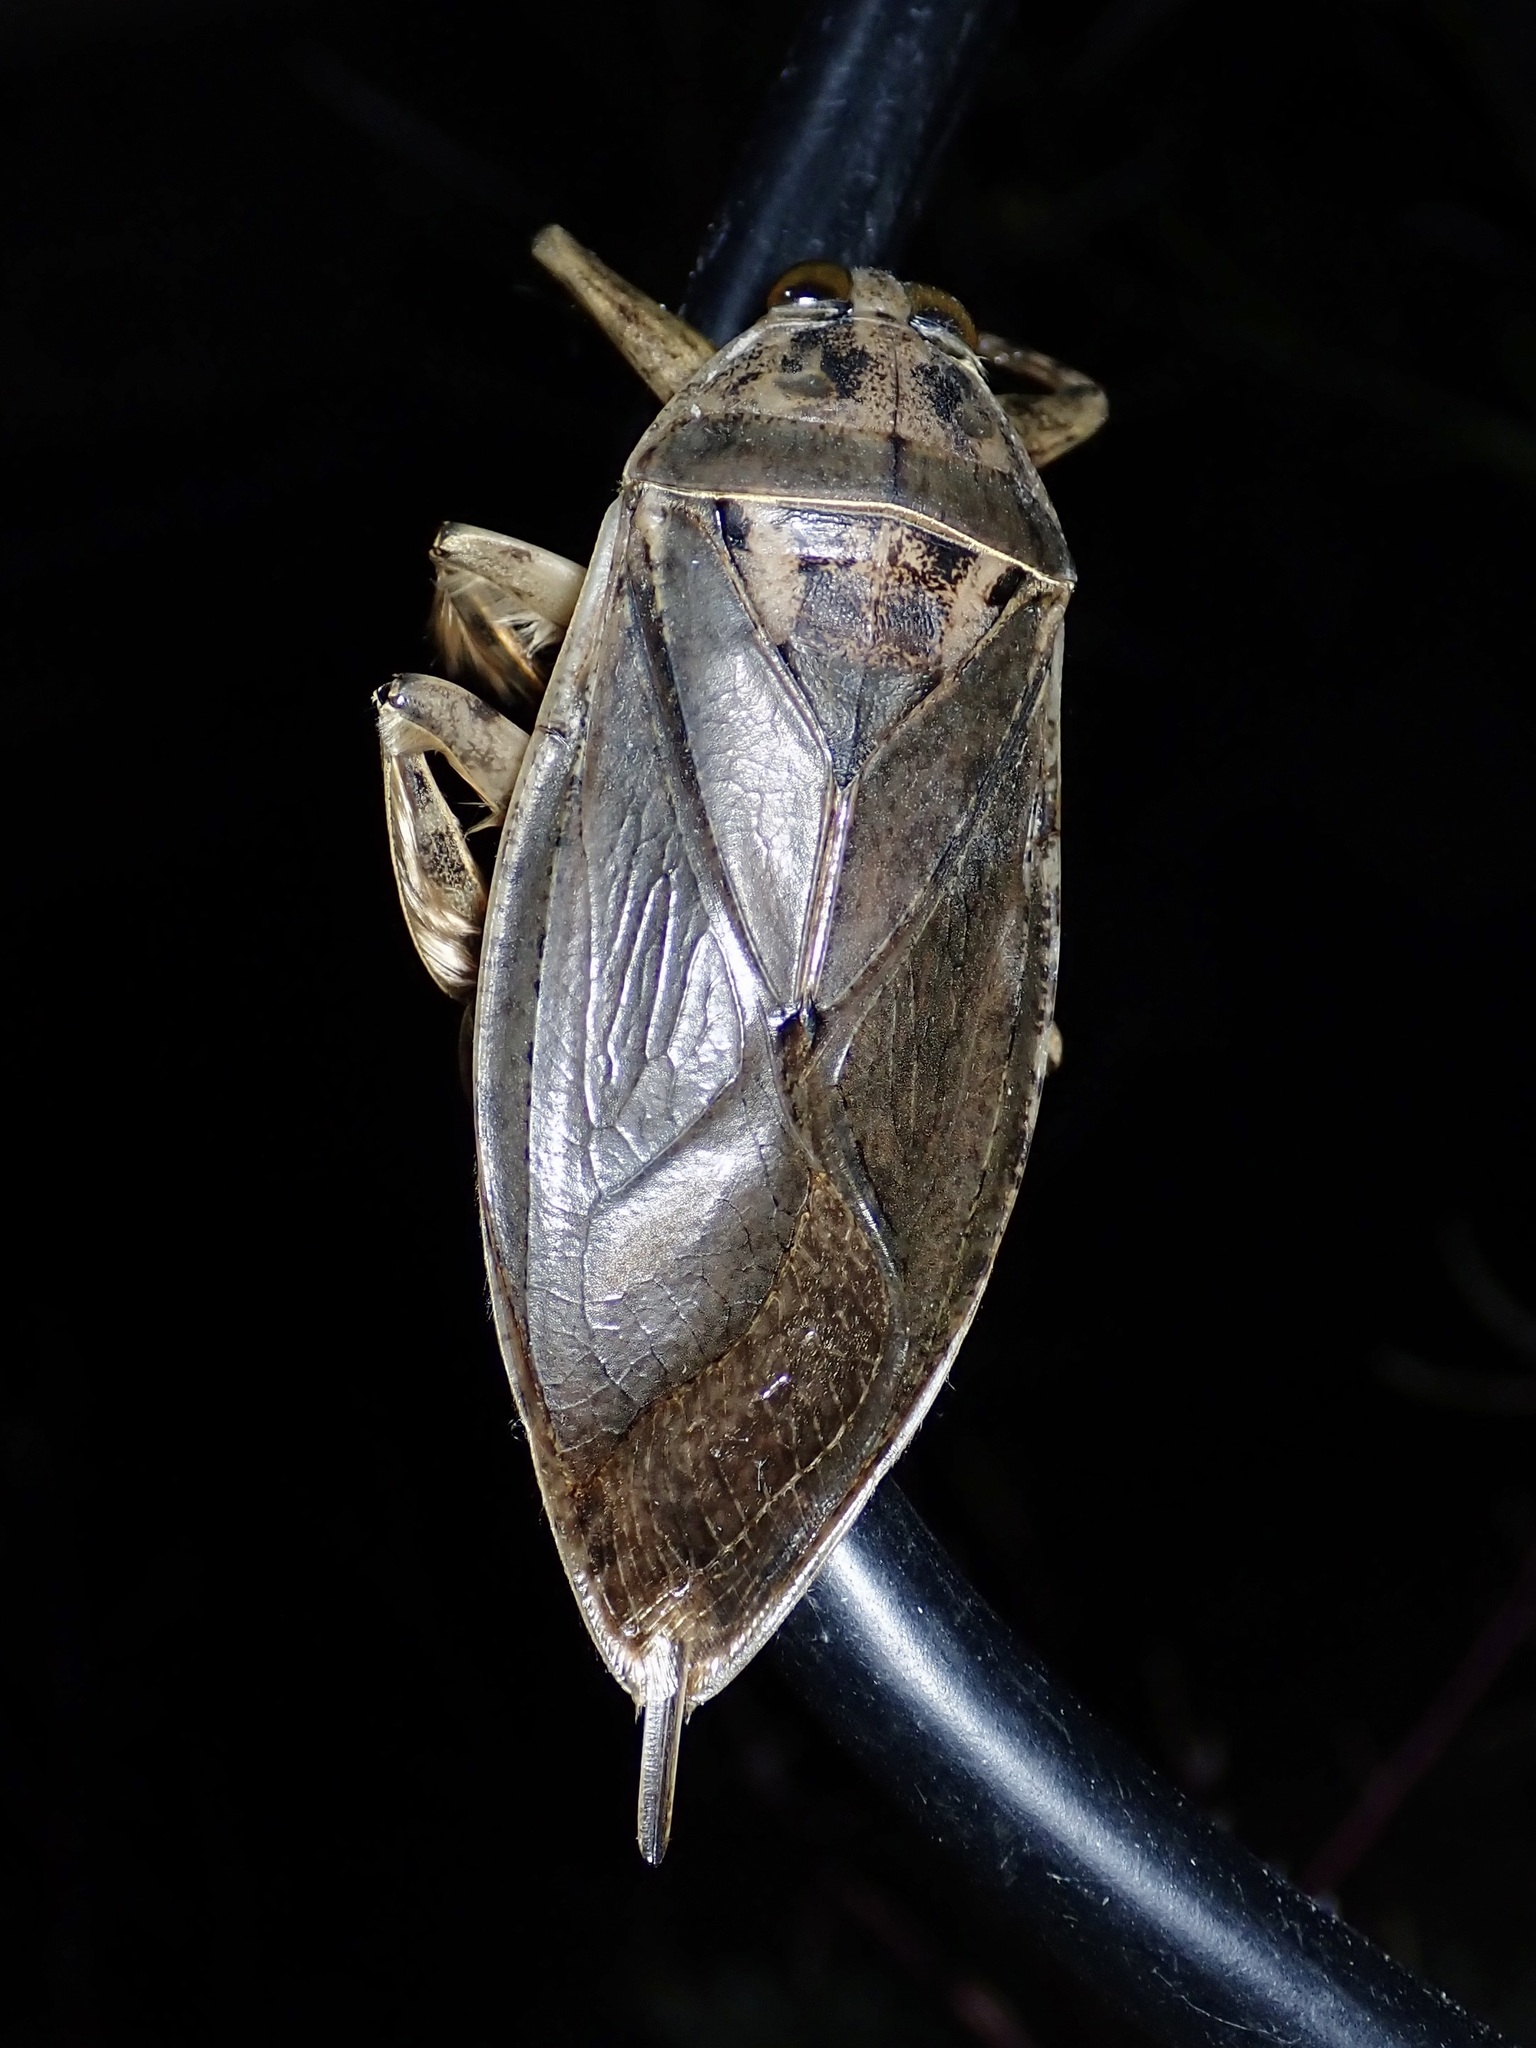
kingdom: Animalia
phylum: Arthropoda
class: Insecta
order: Hemiptera
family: Belostomatidae
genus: Lethocerus
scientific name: Lethocerus medius
